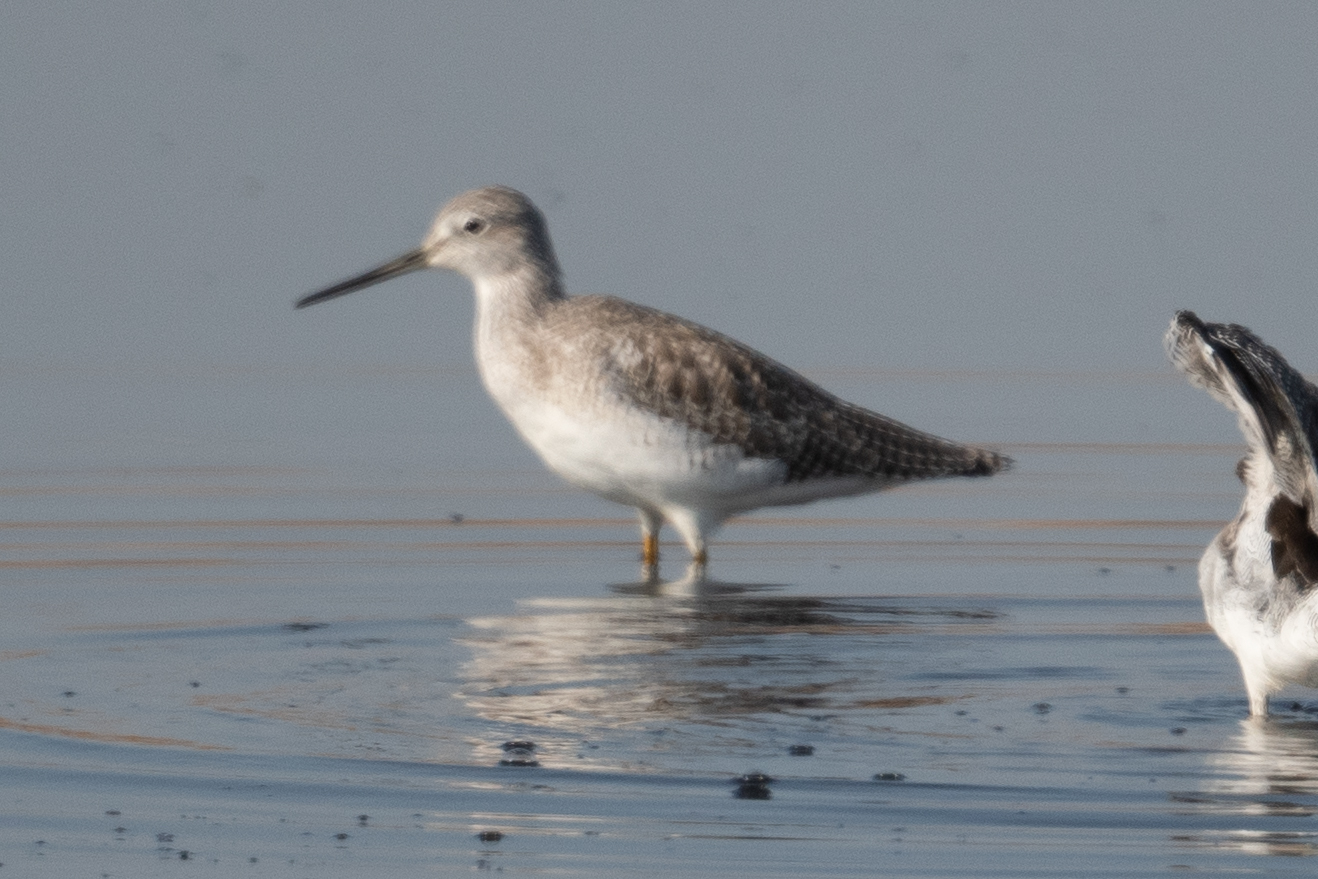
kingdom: Animalia
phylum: Chordata
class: Aves
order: Charadriiformes
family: Scolopacidae
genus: Tringa
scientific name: Tringa melanoleuca
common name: Greater yellowlegs
